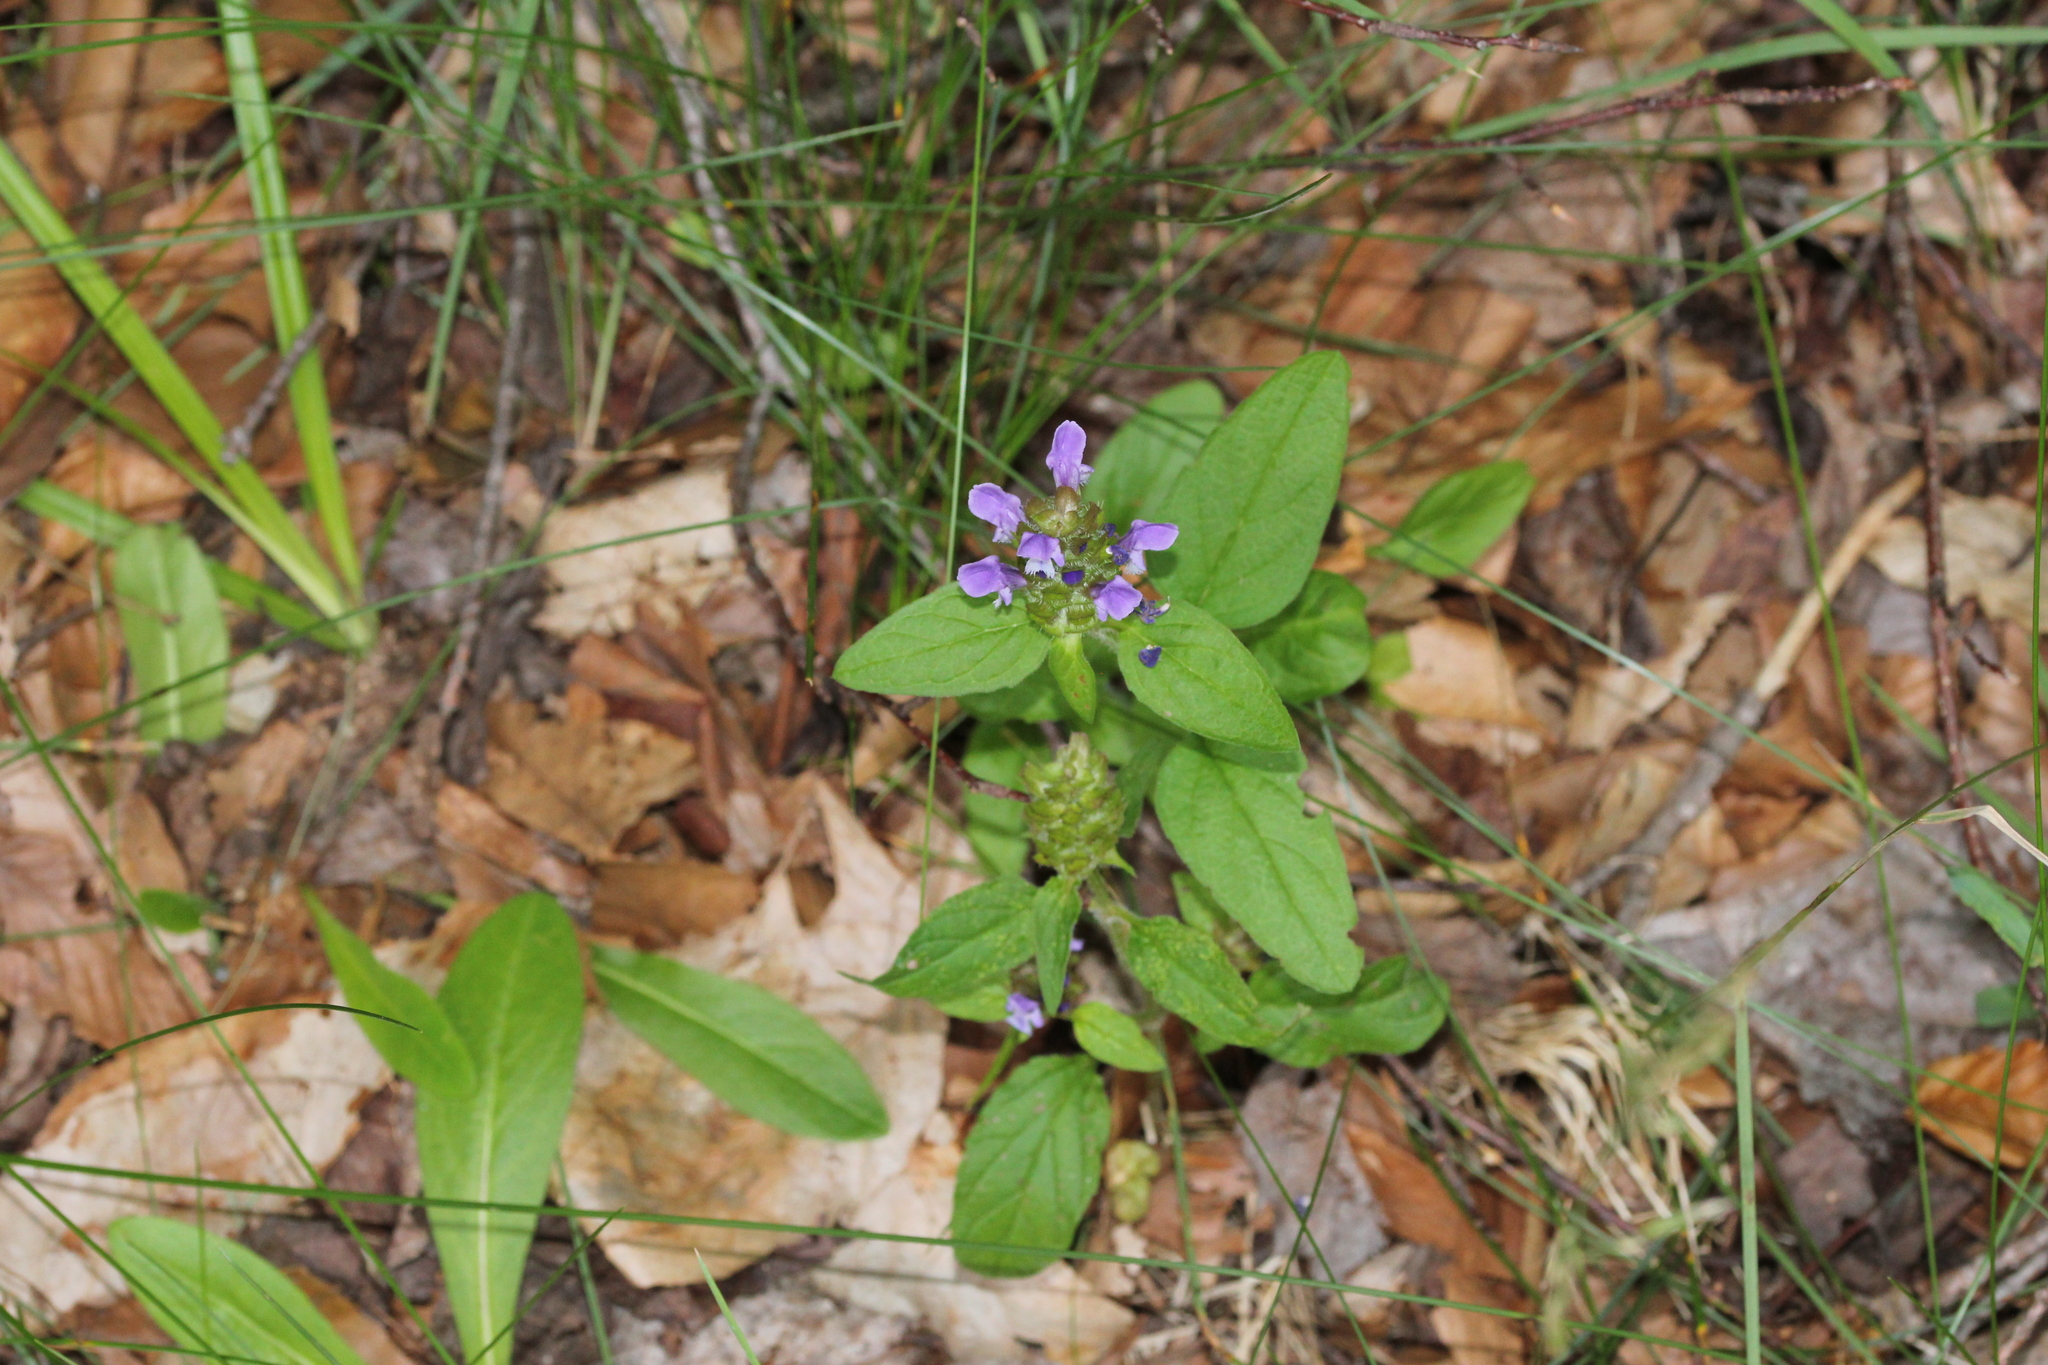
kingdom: Plantae
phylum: Tracheophyta
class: Magnoliopsida
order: Lamiales
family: Lamiaceae
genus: Prunella
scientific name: Prunella vulgaris
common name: Heal-all
